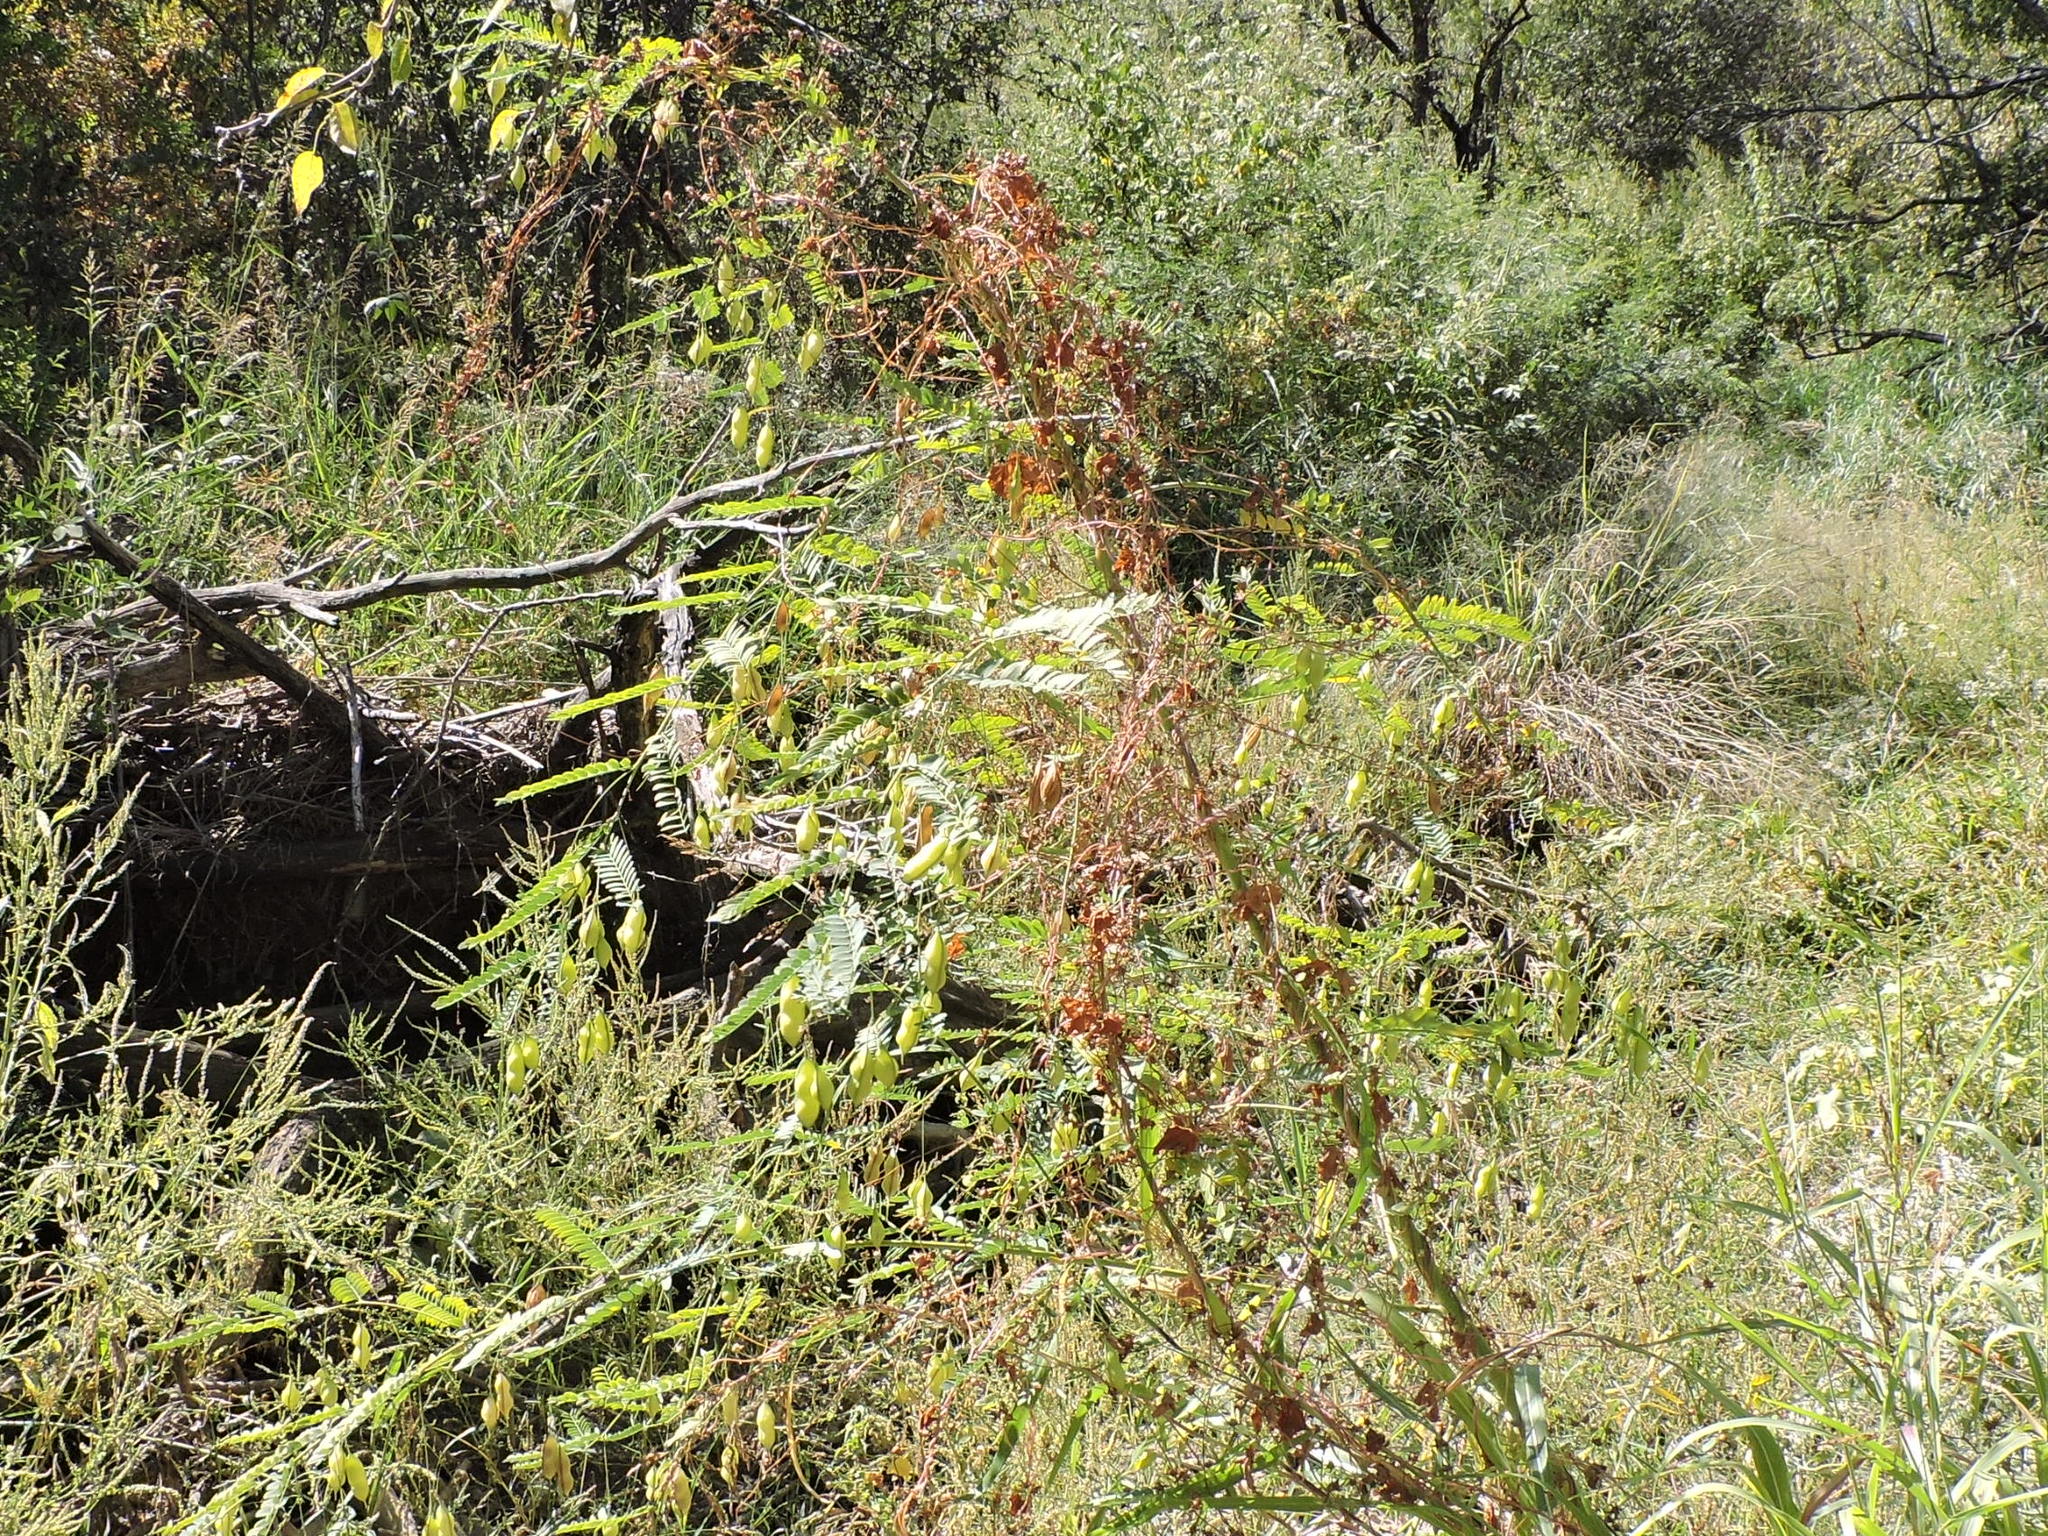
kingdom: Plantae
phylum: Tracheophyta
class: Magnoliopsida
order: Fabales
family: Fabaceae
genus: Sesbania
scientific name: Sesbania vesicaria
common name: Bagpod
